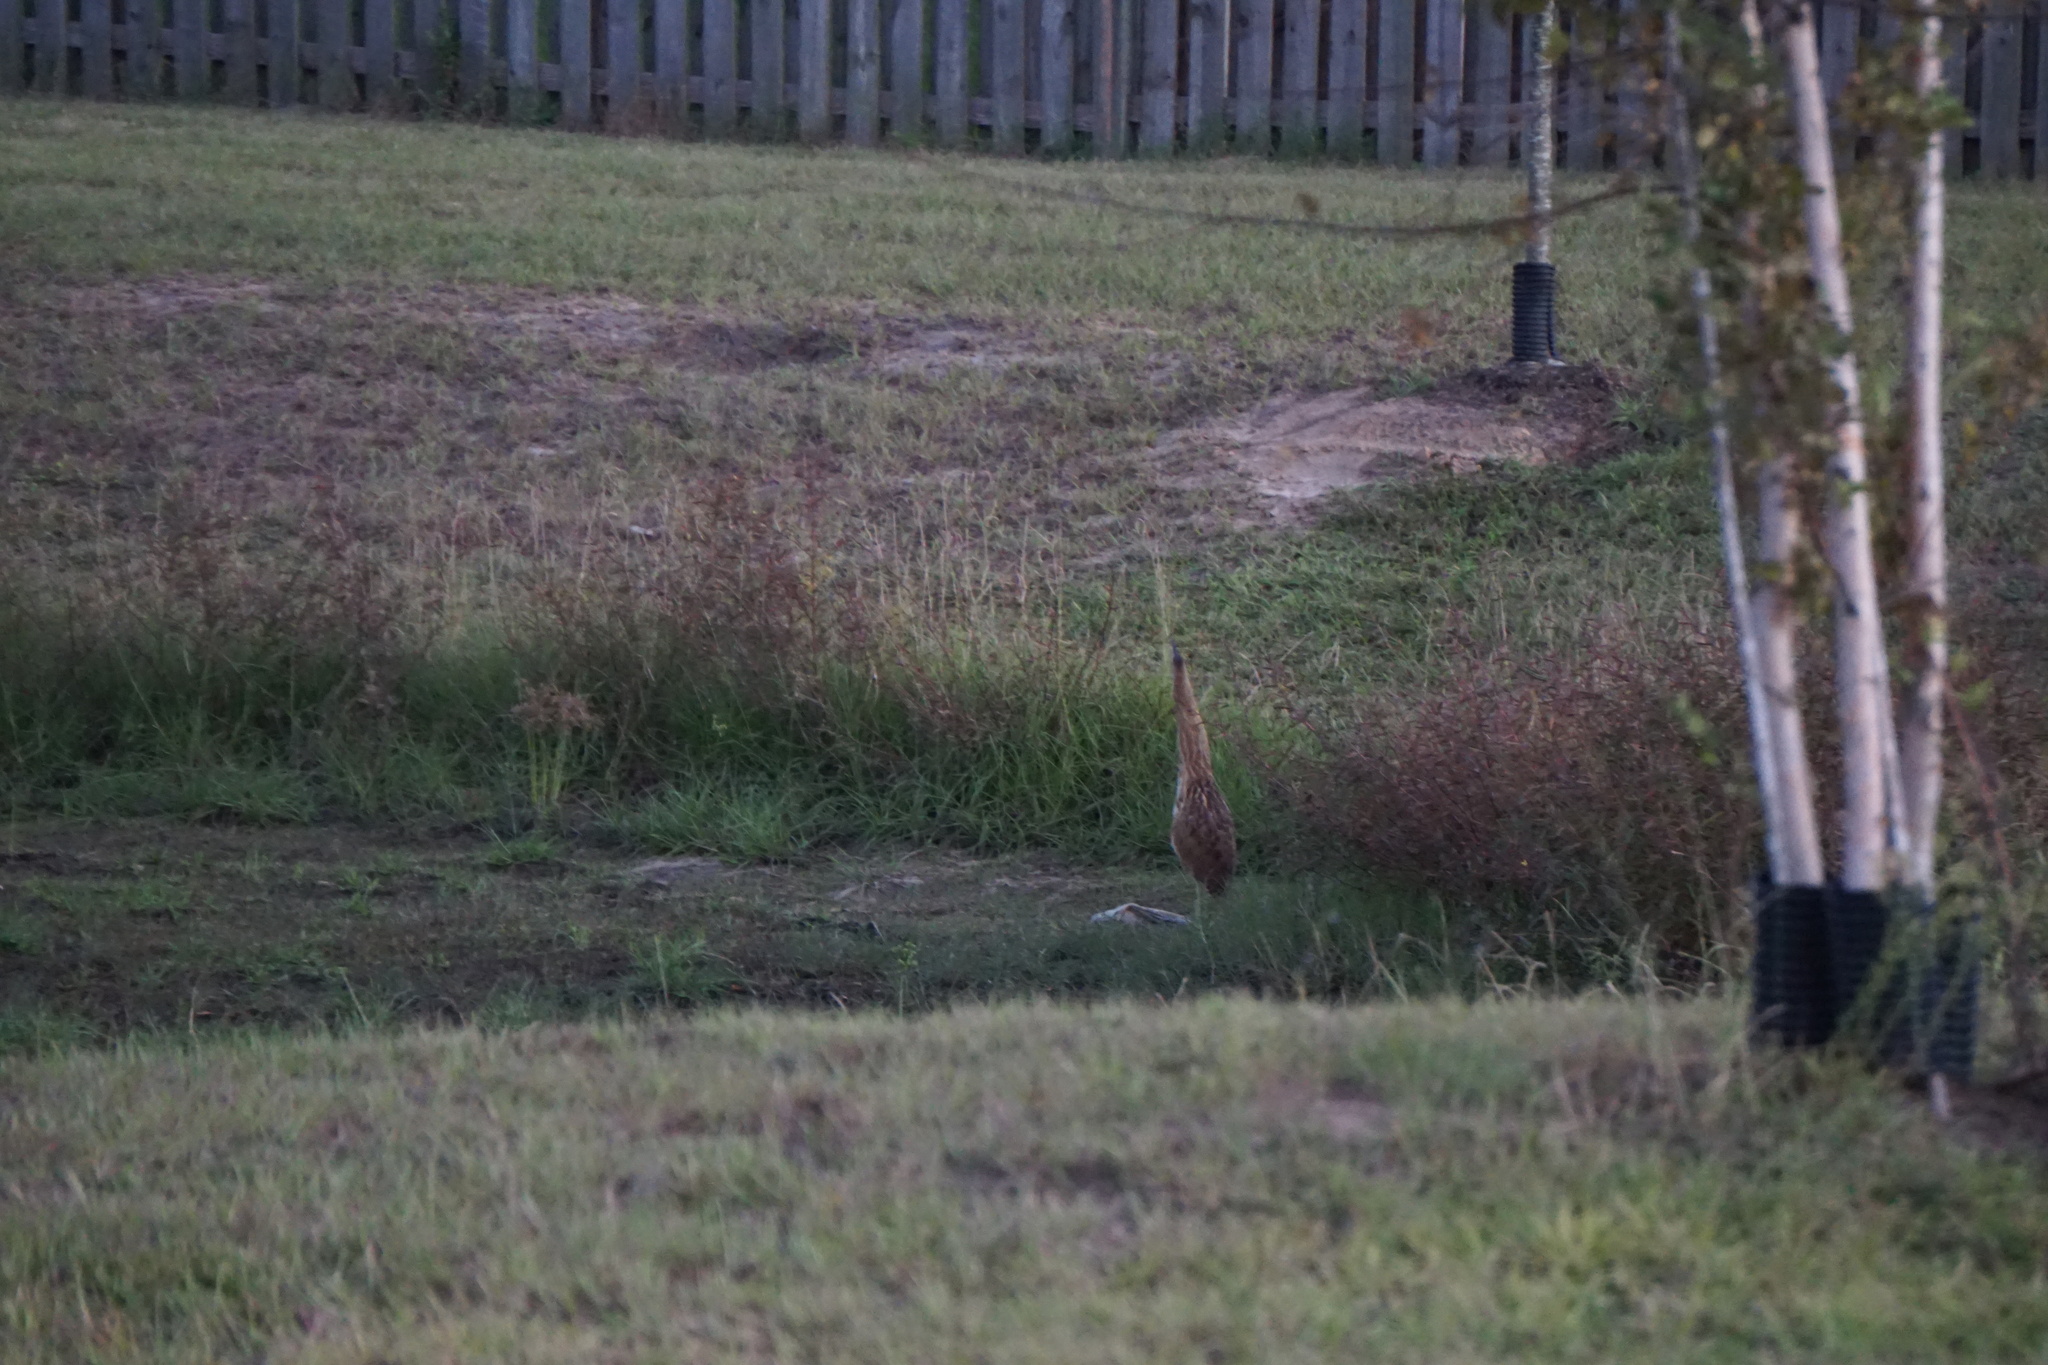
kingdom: Animalia
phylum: Chordata
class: Aves
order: Pelecaniformes
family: Ardeidae
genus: Botaurus
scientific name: Botaurus lentiginosus
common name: American bittern
